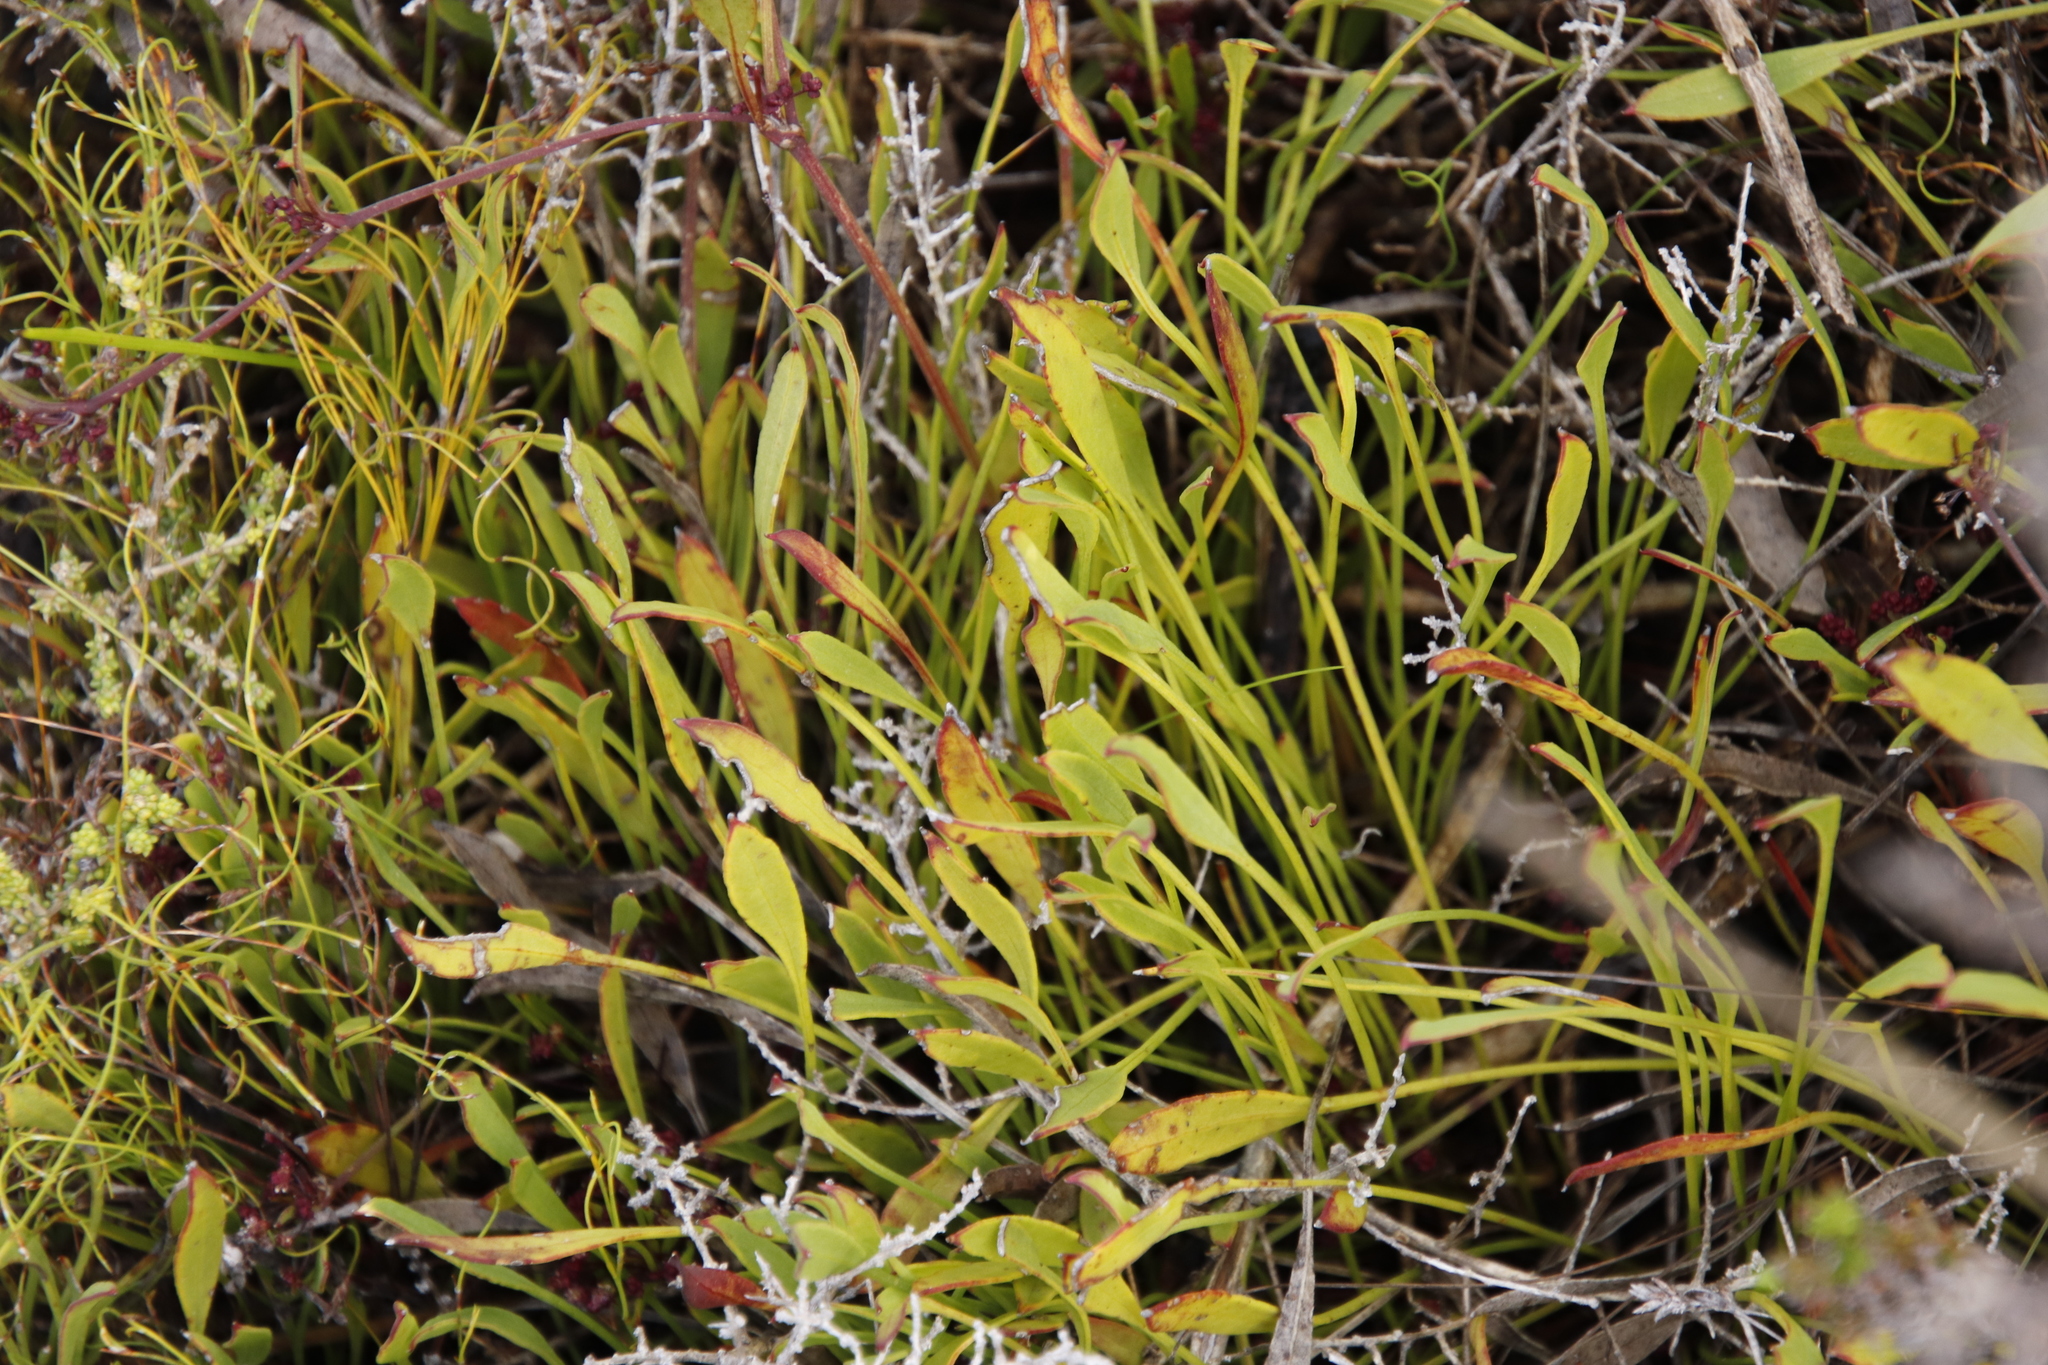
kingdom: Plantae
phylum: Tracheophyta
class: Magnoliopsida
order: Apiales
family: Apiaceae
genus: Centella
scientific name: Centella glabrata
